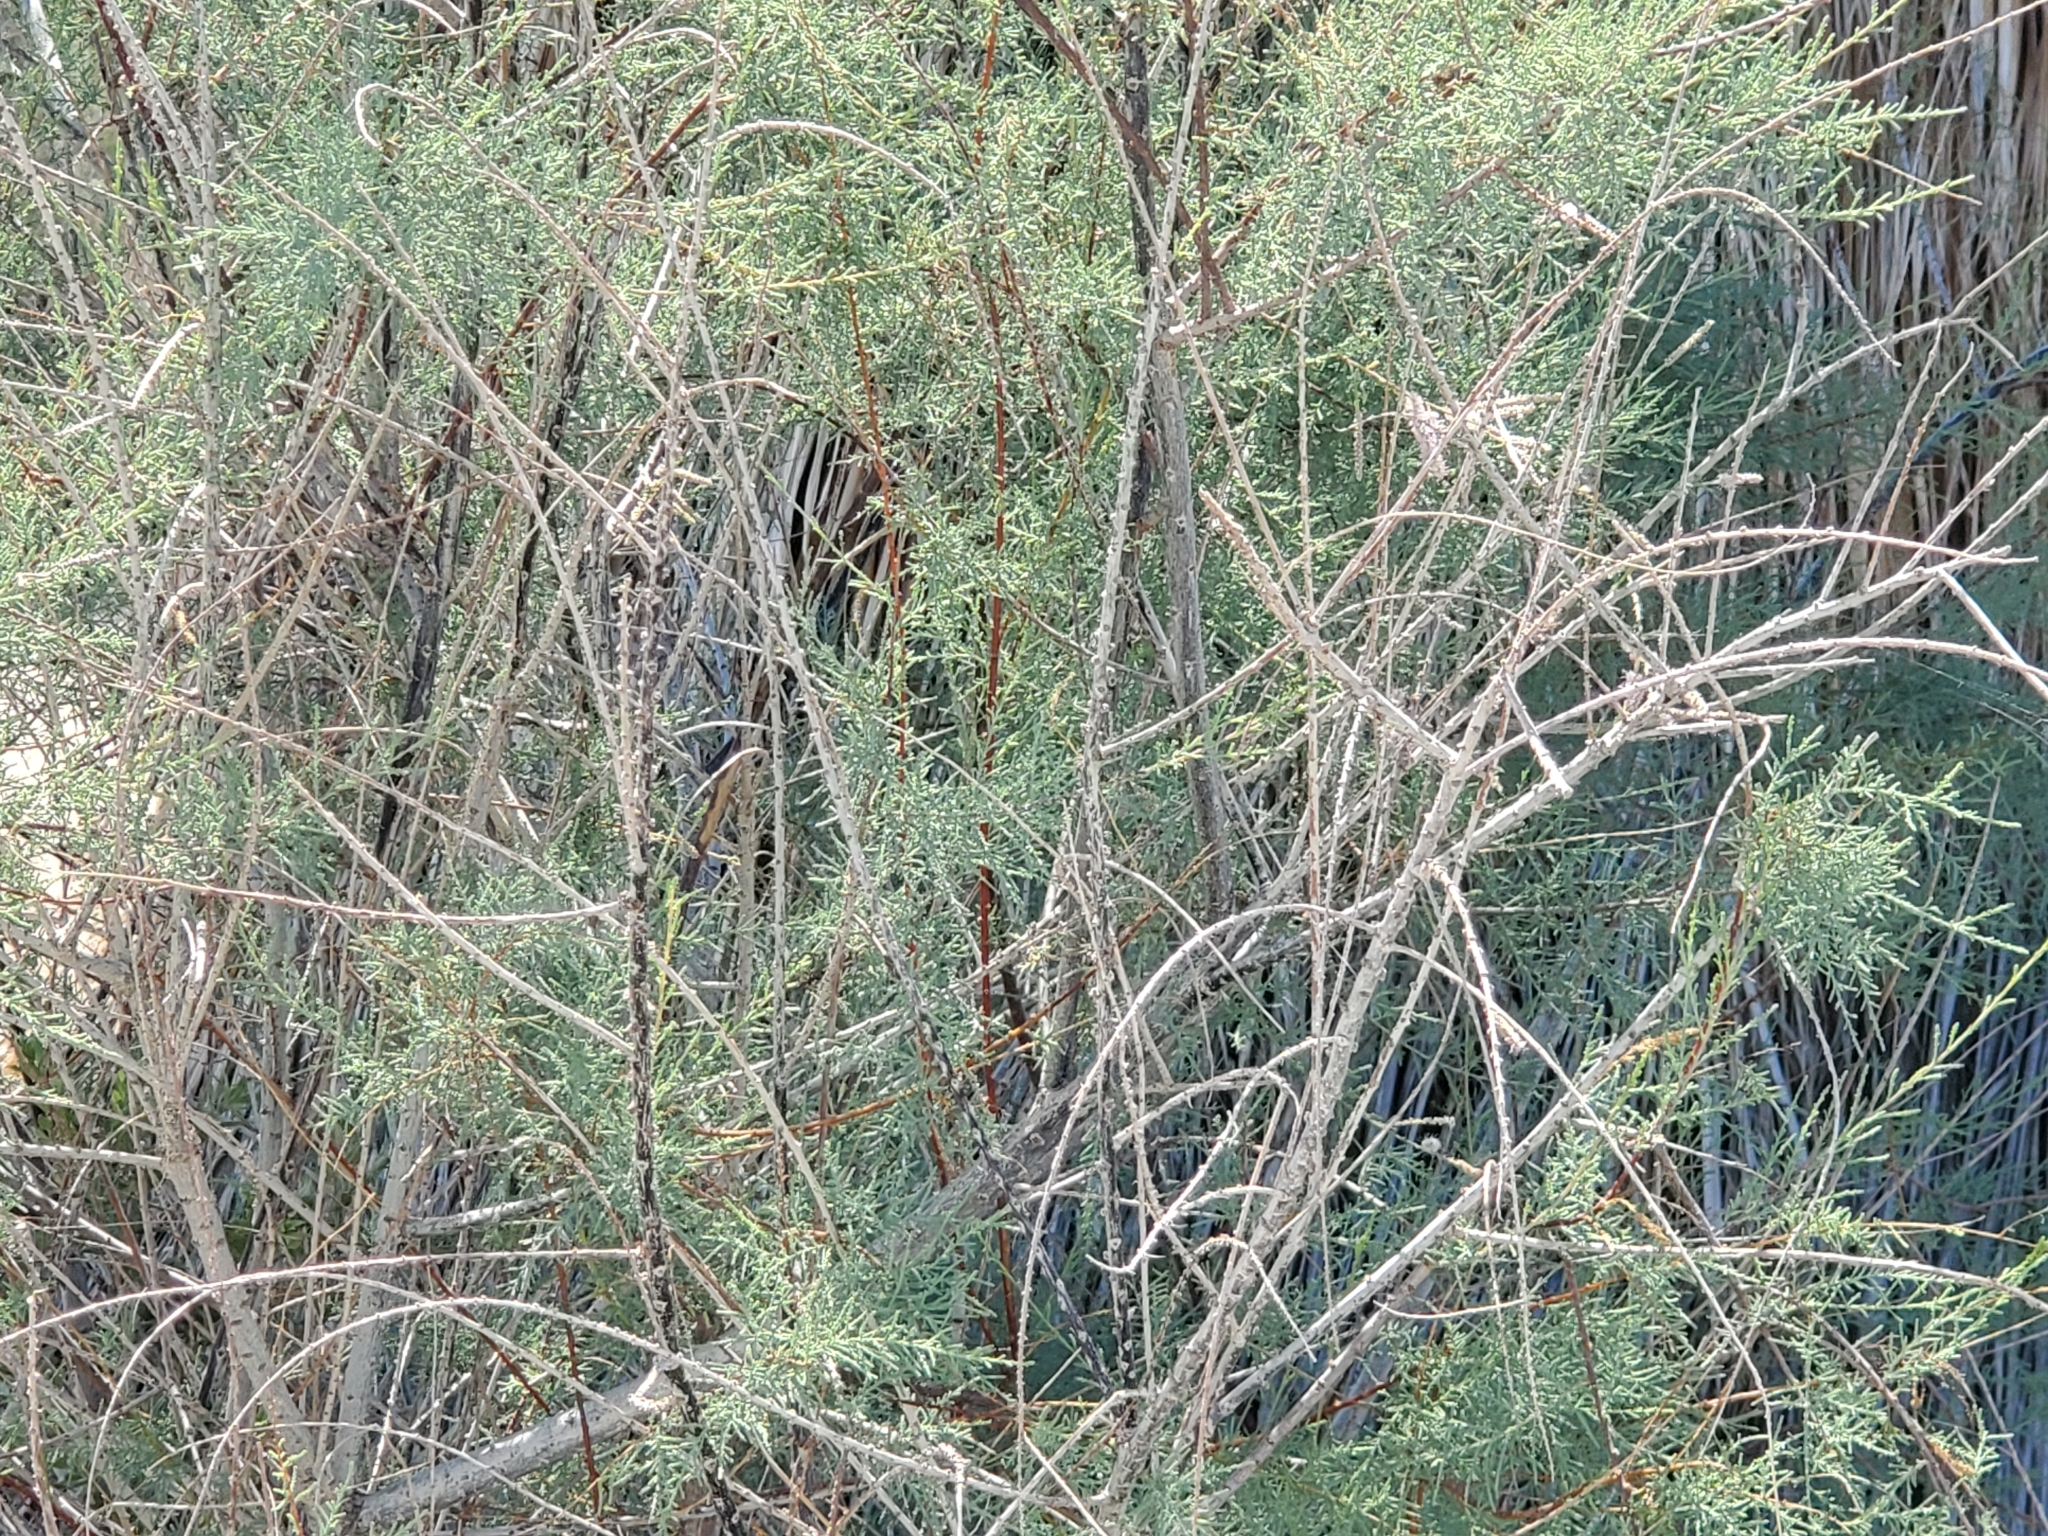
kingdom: Plantae
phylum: Tracheophyta
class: Magnoliopsida
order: Caryophyllales
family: Tamaricaceae
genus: Tamarix
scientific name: Tamarix ramosissima
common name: Pink tamarisk
